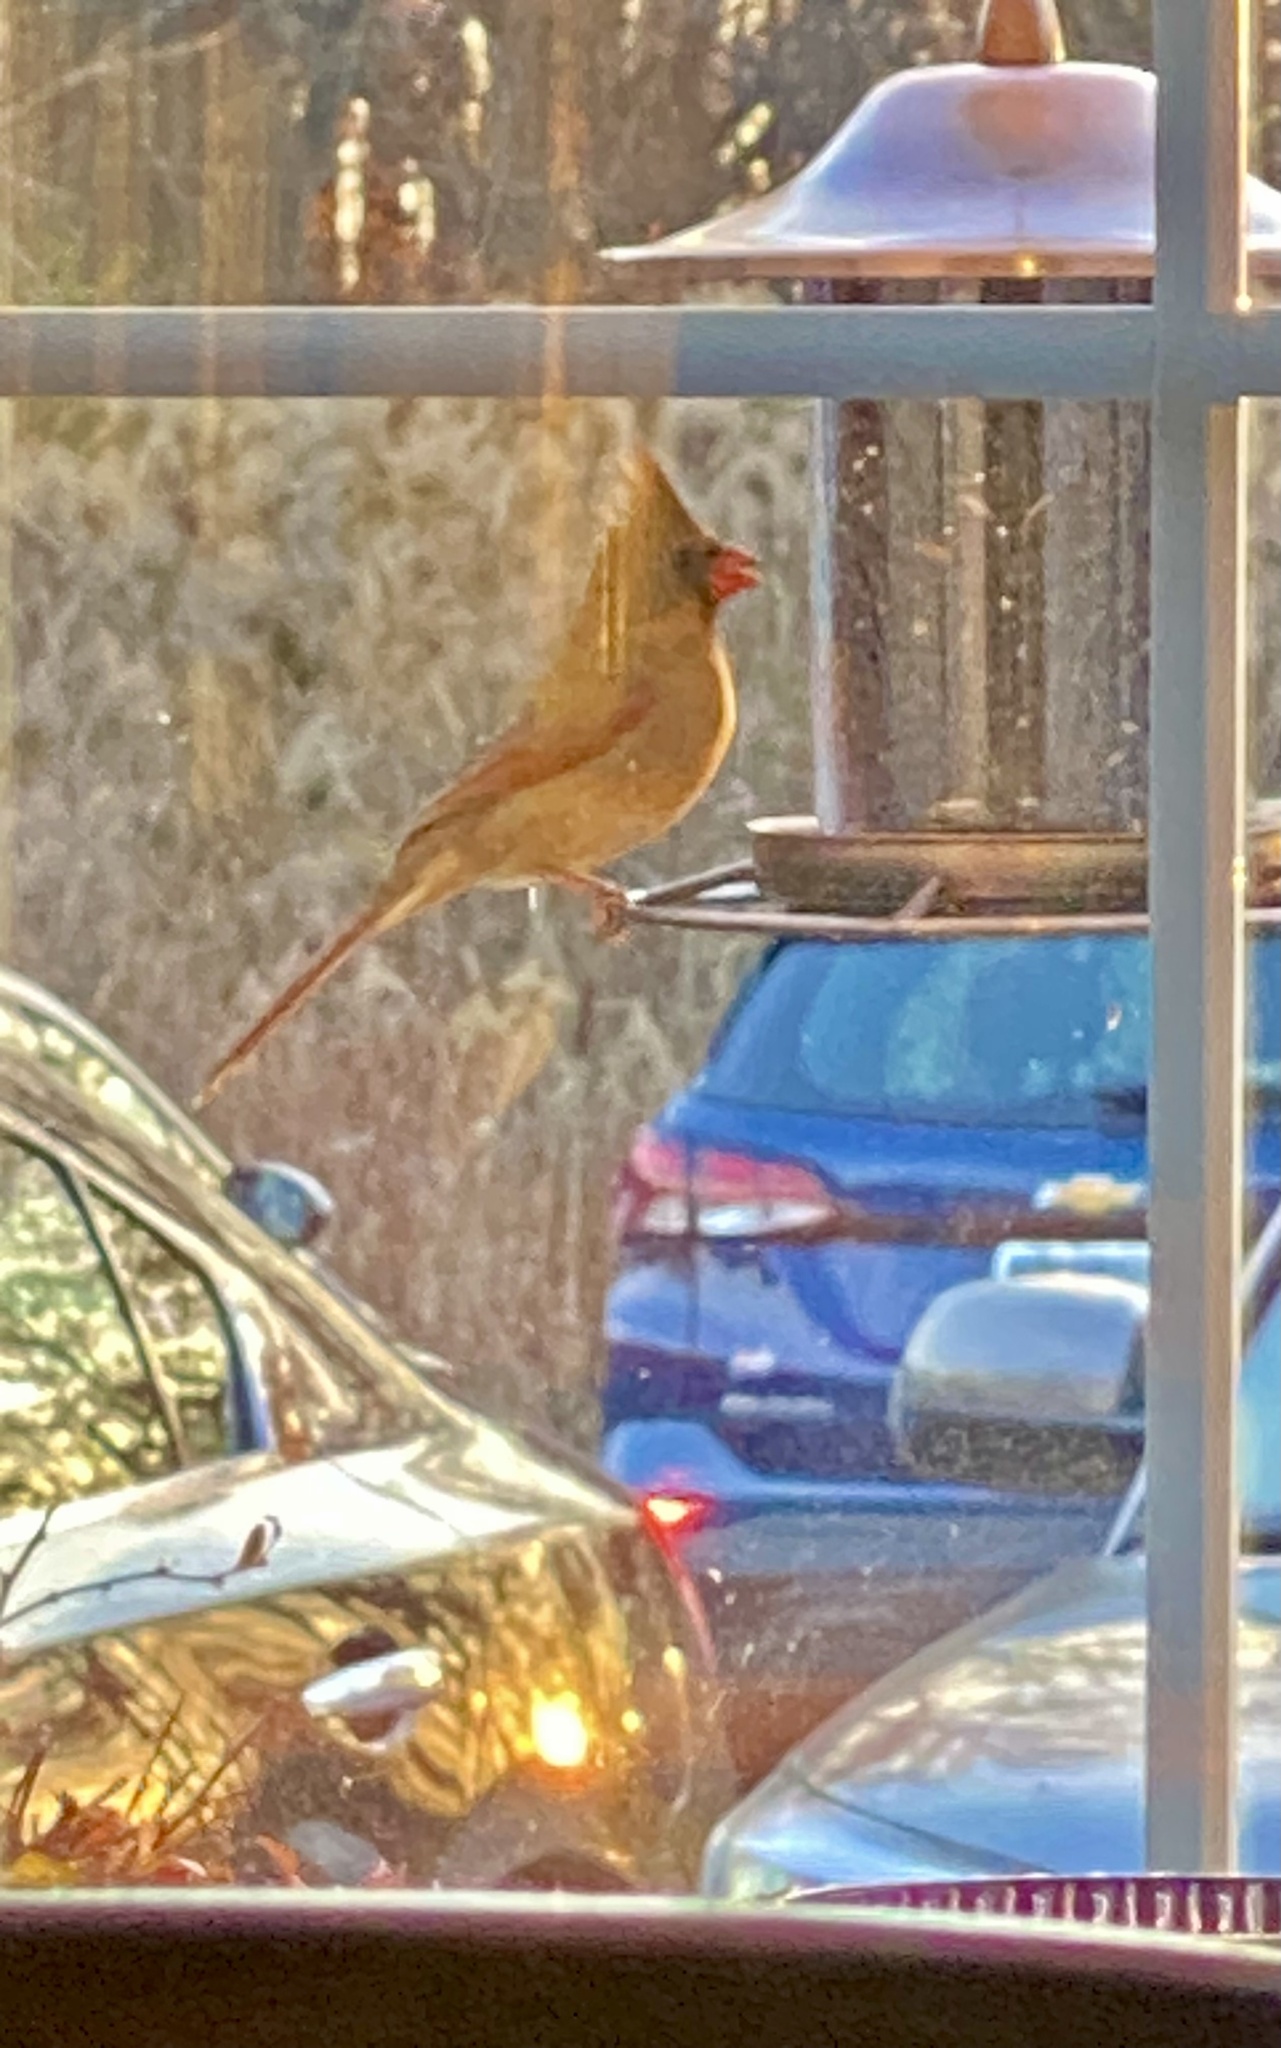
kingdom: Animalia
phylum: Chordata
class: Aves
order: Passeriformes
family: Cardinalidae
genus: Cardinalis
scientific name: Cardinalis cardinalis
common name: Northern cardinal
